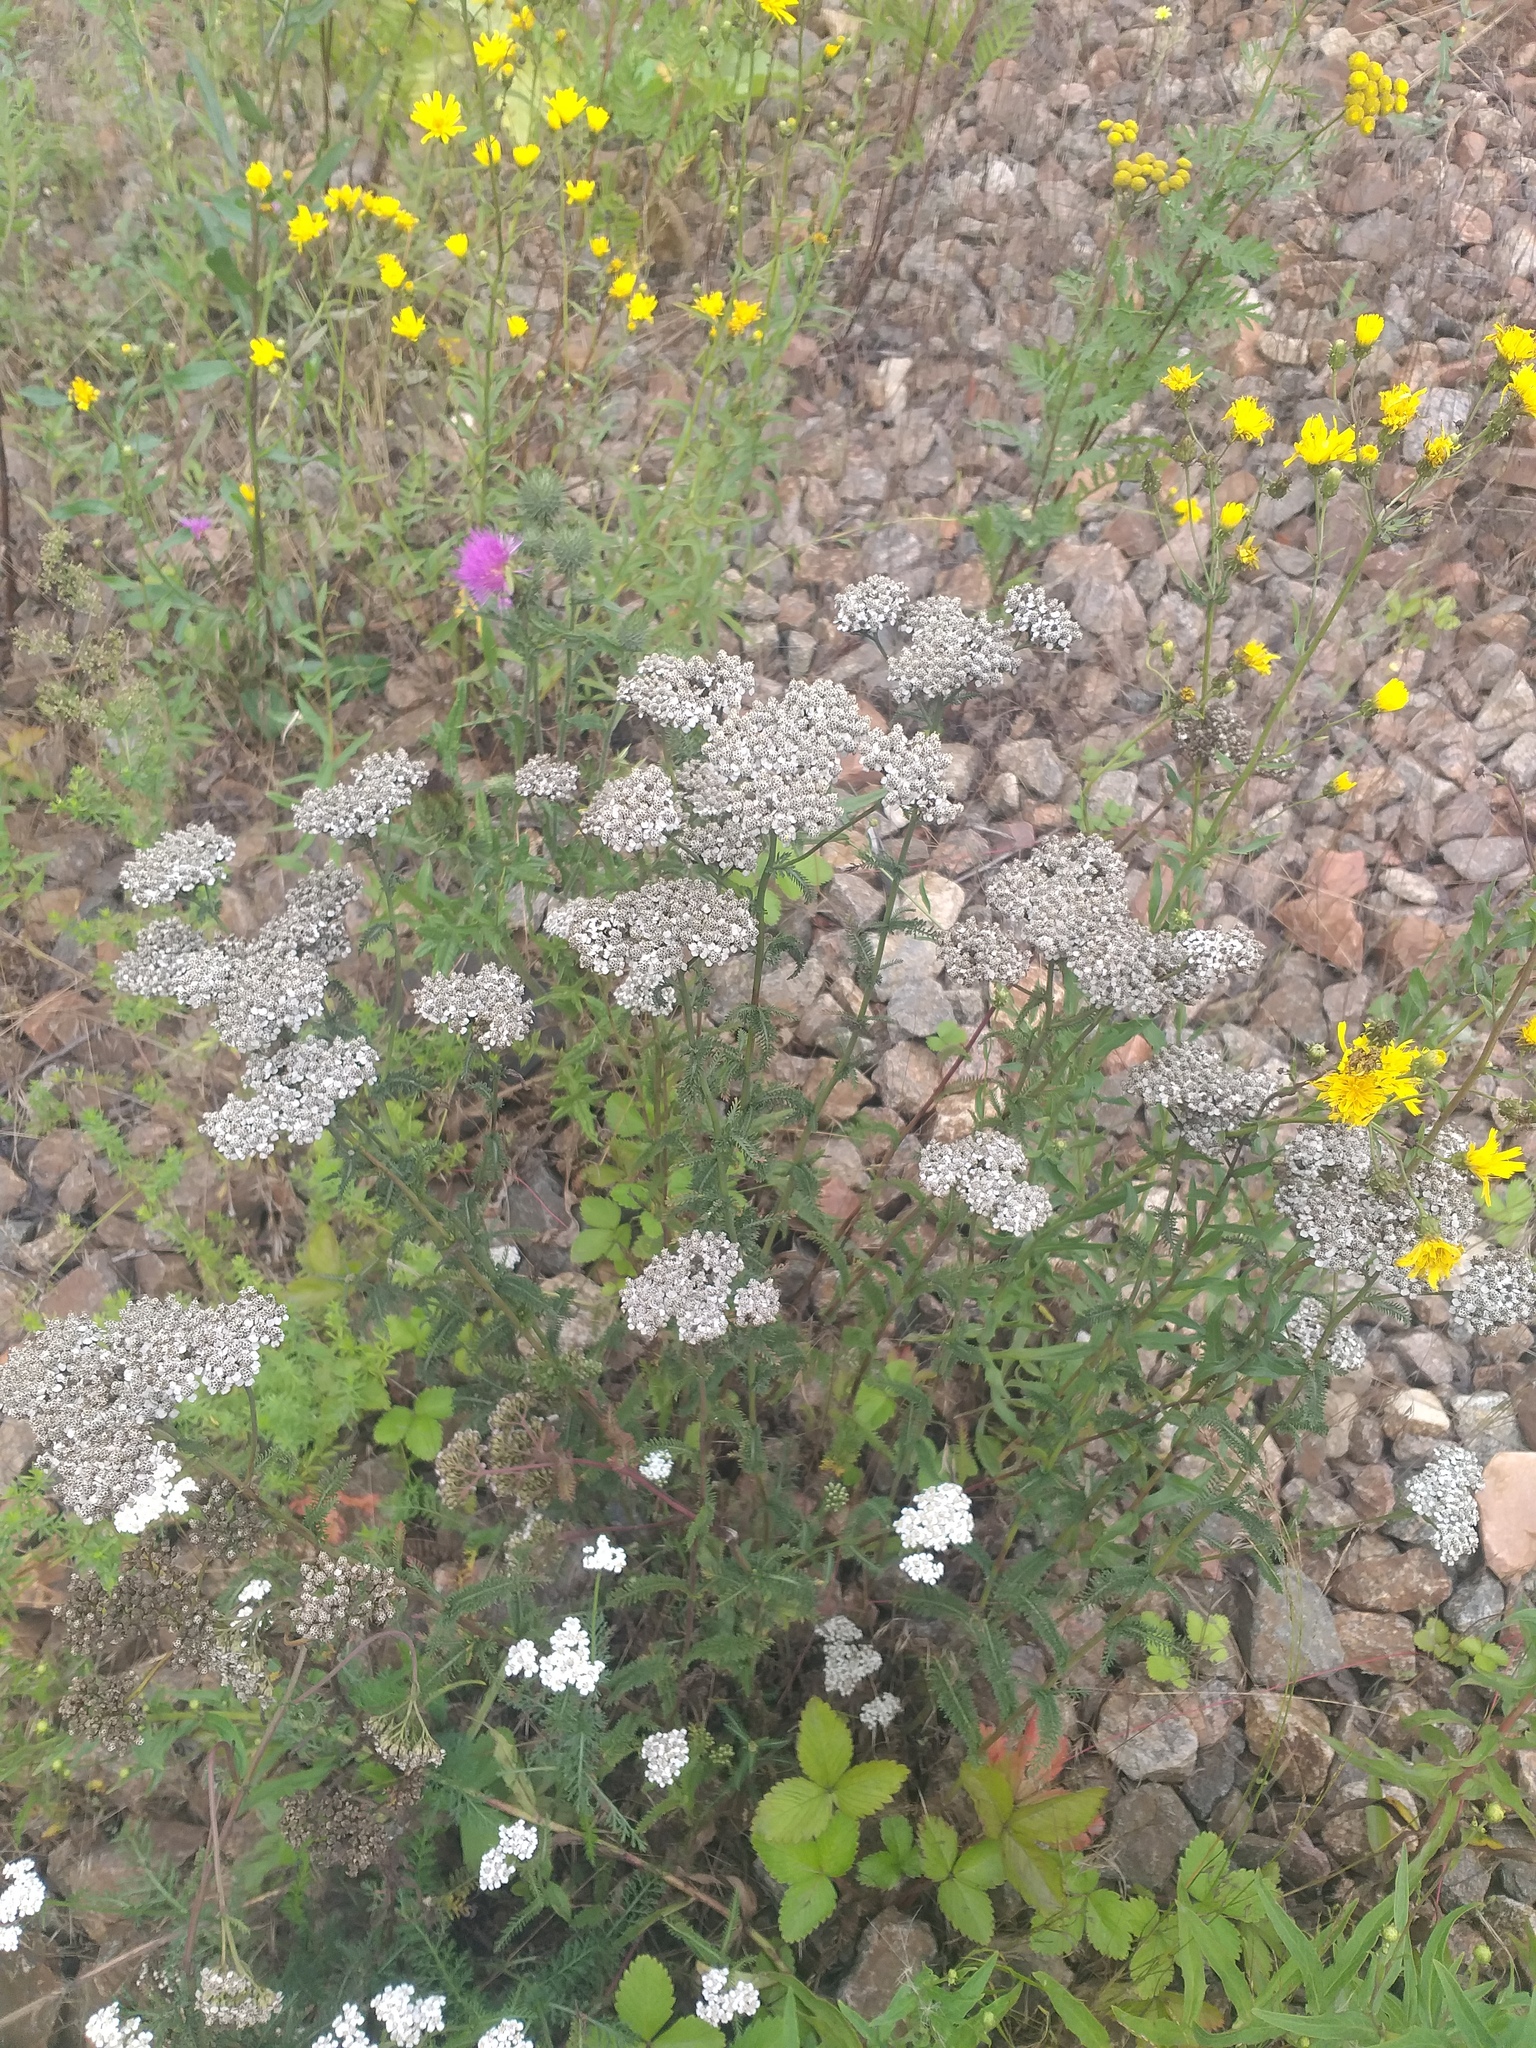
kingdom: Plantae
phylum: Tracheophyta
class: Magnoliopsida
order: Asterales
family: Asteraceae
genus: Achillea
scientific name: Achillea millefolium
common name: Yarrow
